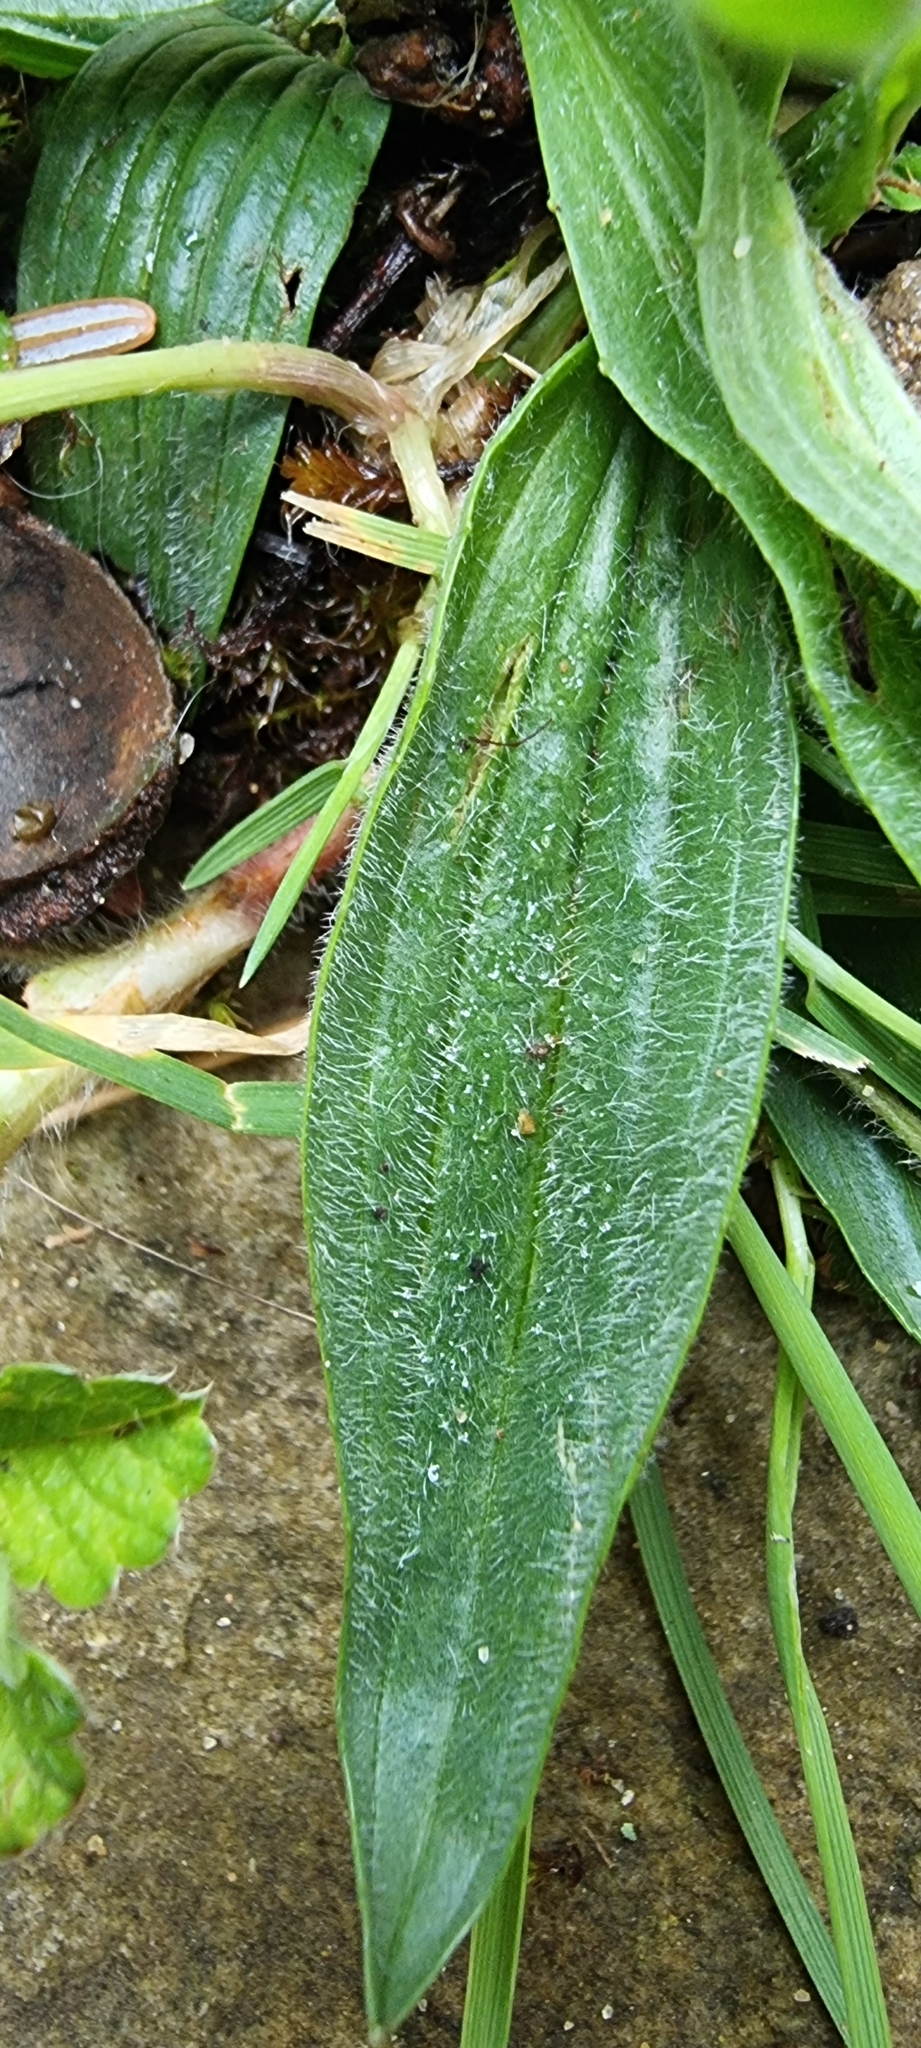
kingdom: Plantae
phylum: Tracheophyta
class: Magnoliopsida
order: Lamiales
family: Plantaginaceae
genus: Plantago
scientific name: Plantago lanceolata
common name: Ribwort plantain
